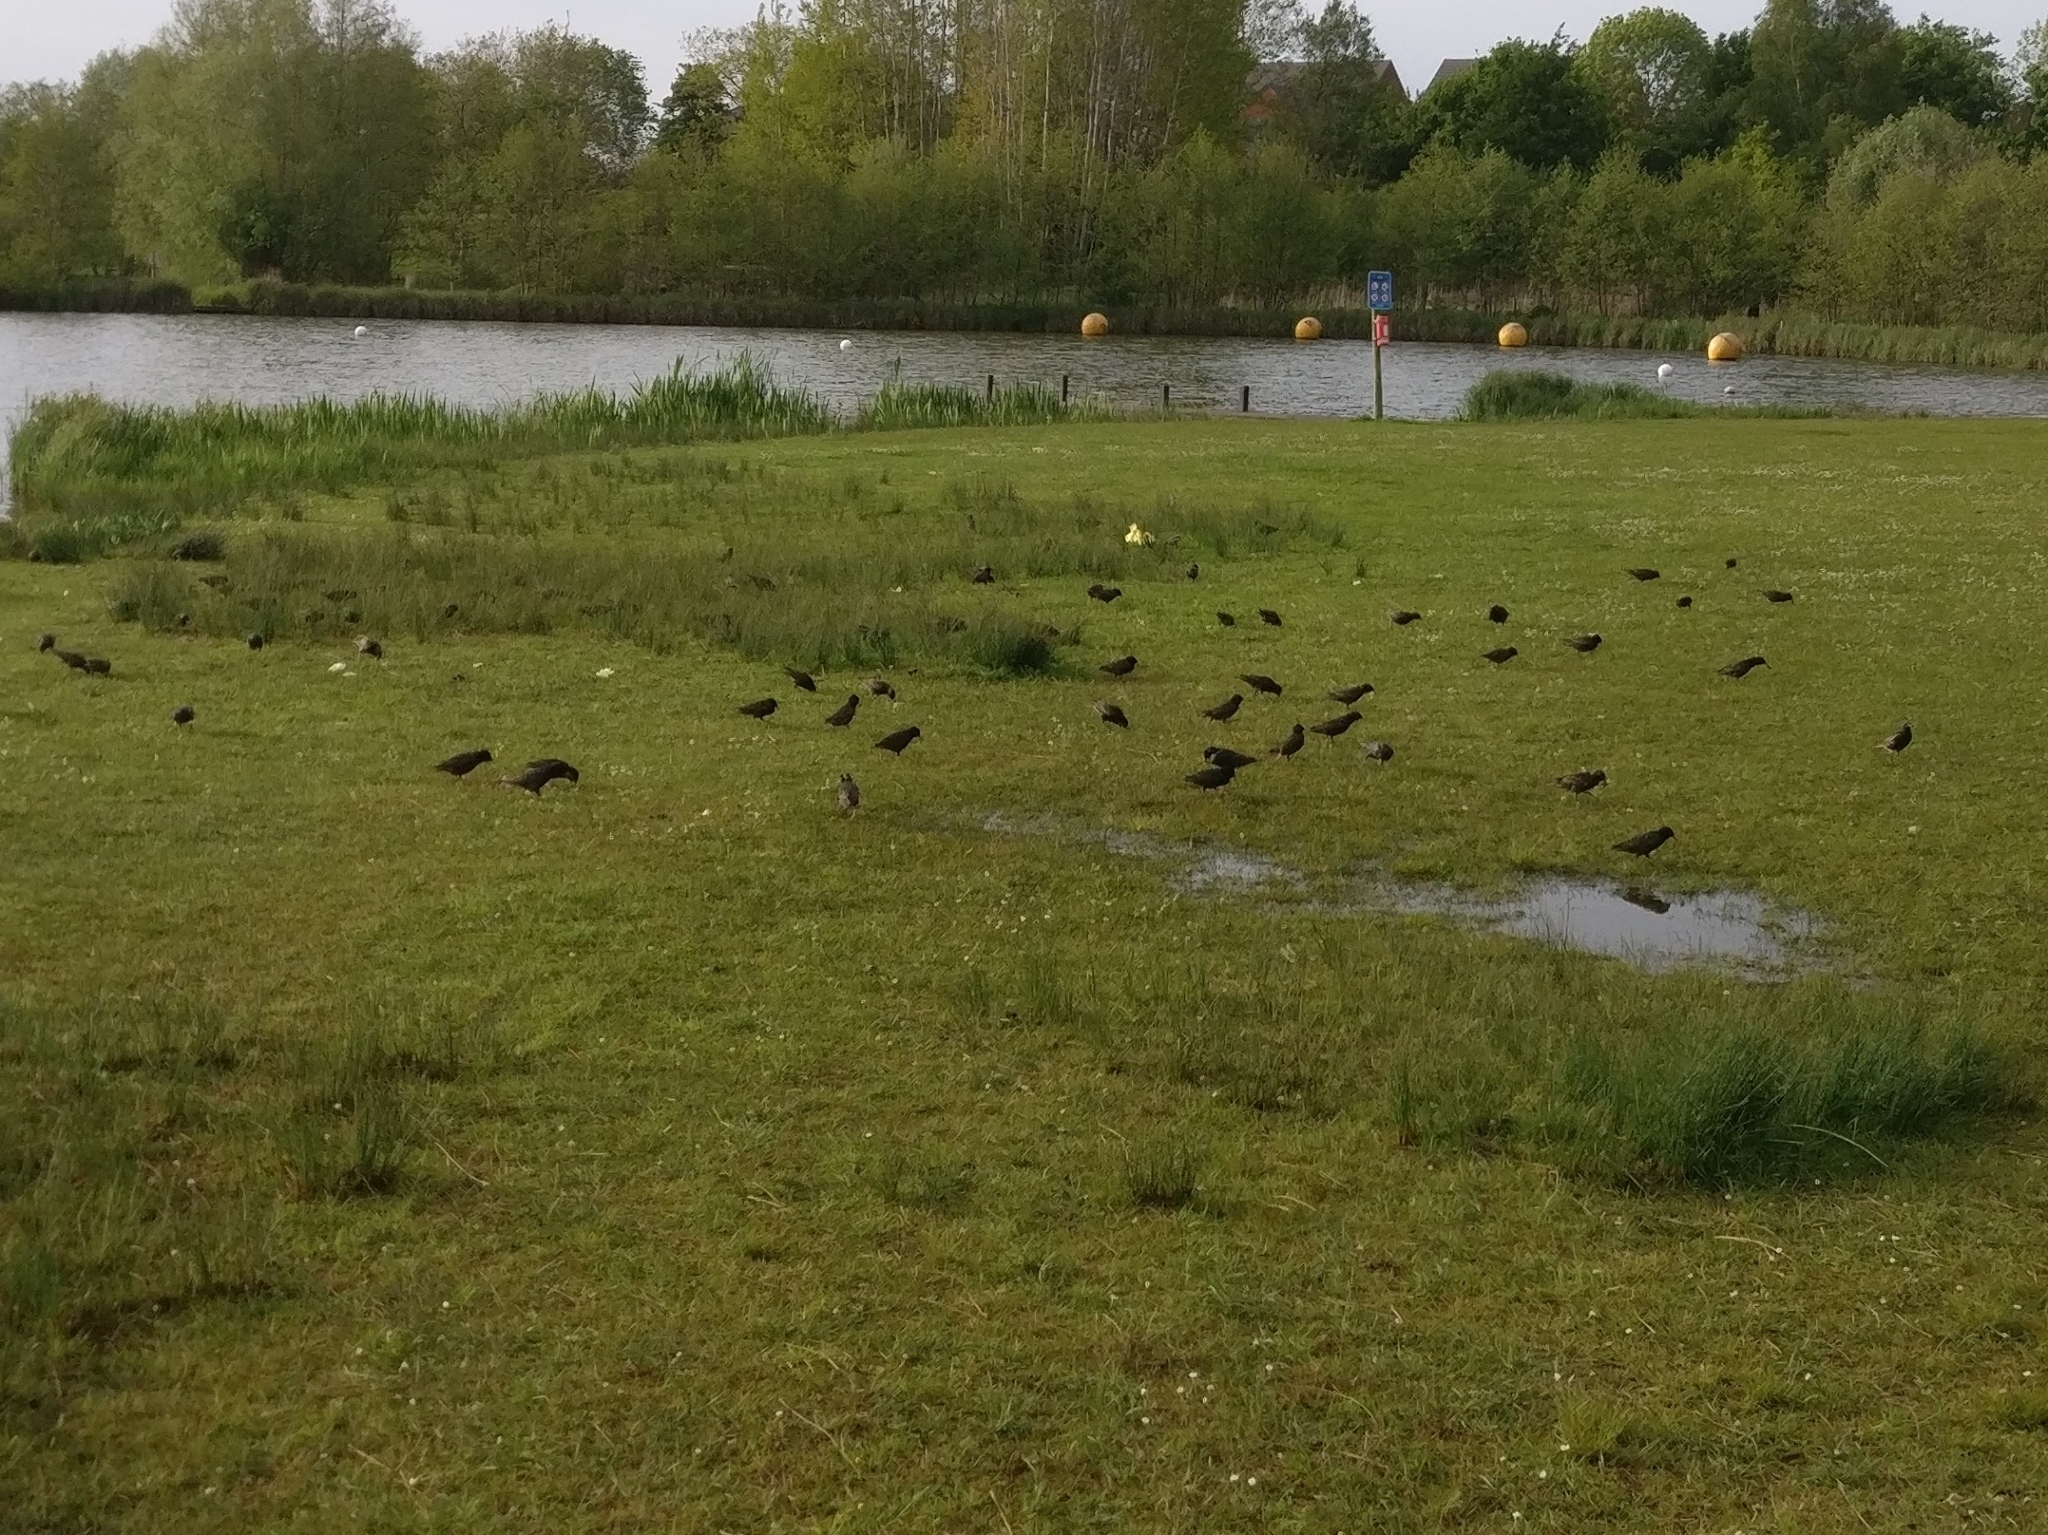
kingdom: Animalia
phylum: Chordata
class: Aves
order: Passeriformes
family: Sturnidae
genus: Sturnus
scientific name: Sturnus vulgaris
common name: Common starling
